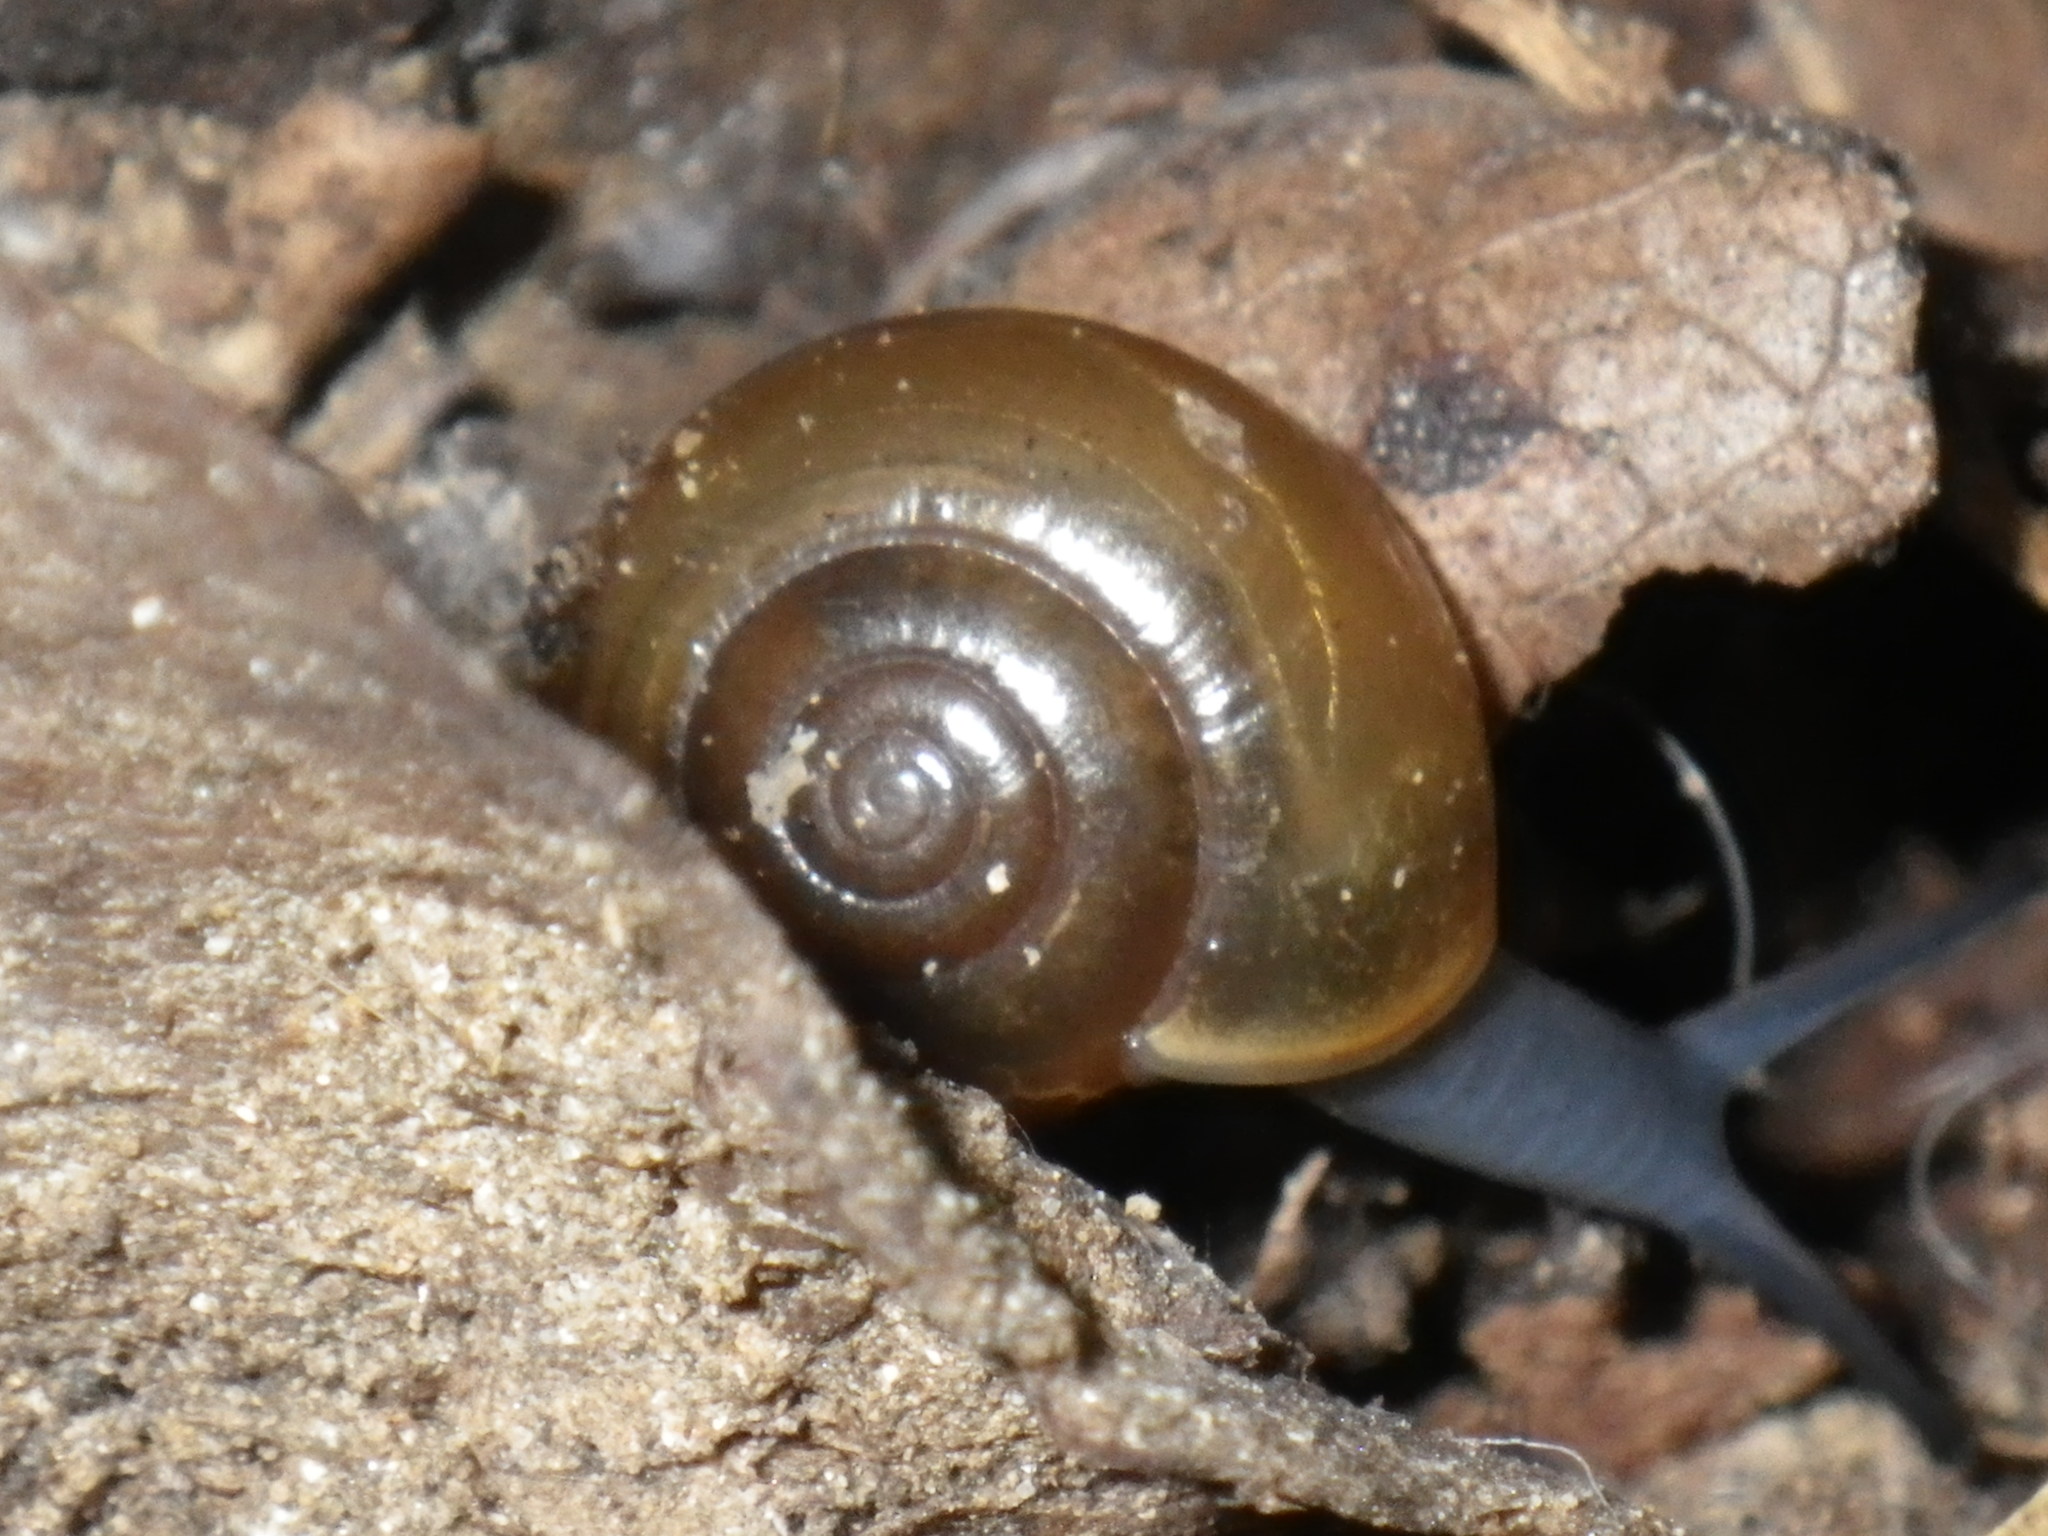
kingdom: Animalia
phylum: Mollusca
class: Gastropoda
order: Stylommatophora
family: Oxychilidae
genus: Oxychilus
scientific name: Oxychilus draparnaudi
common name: Draparnaud's glass snail
